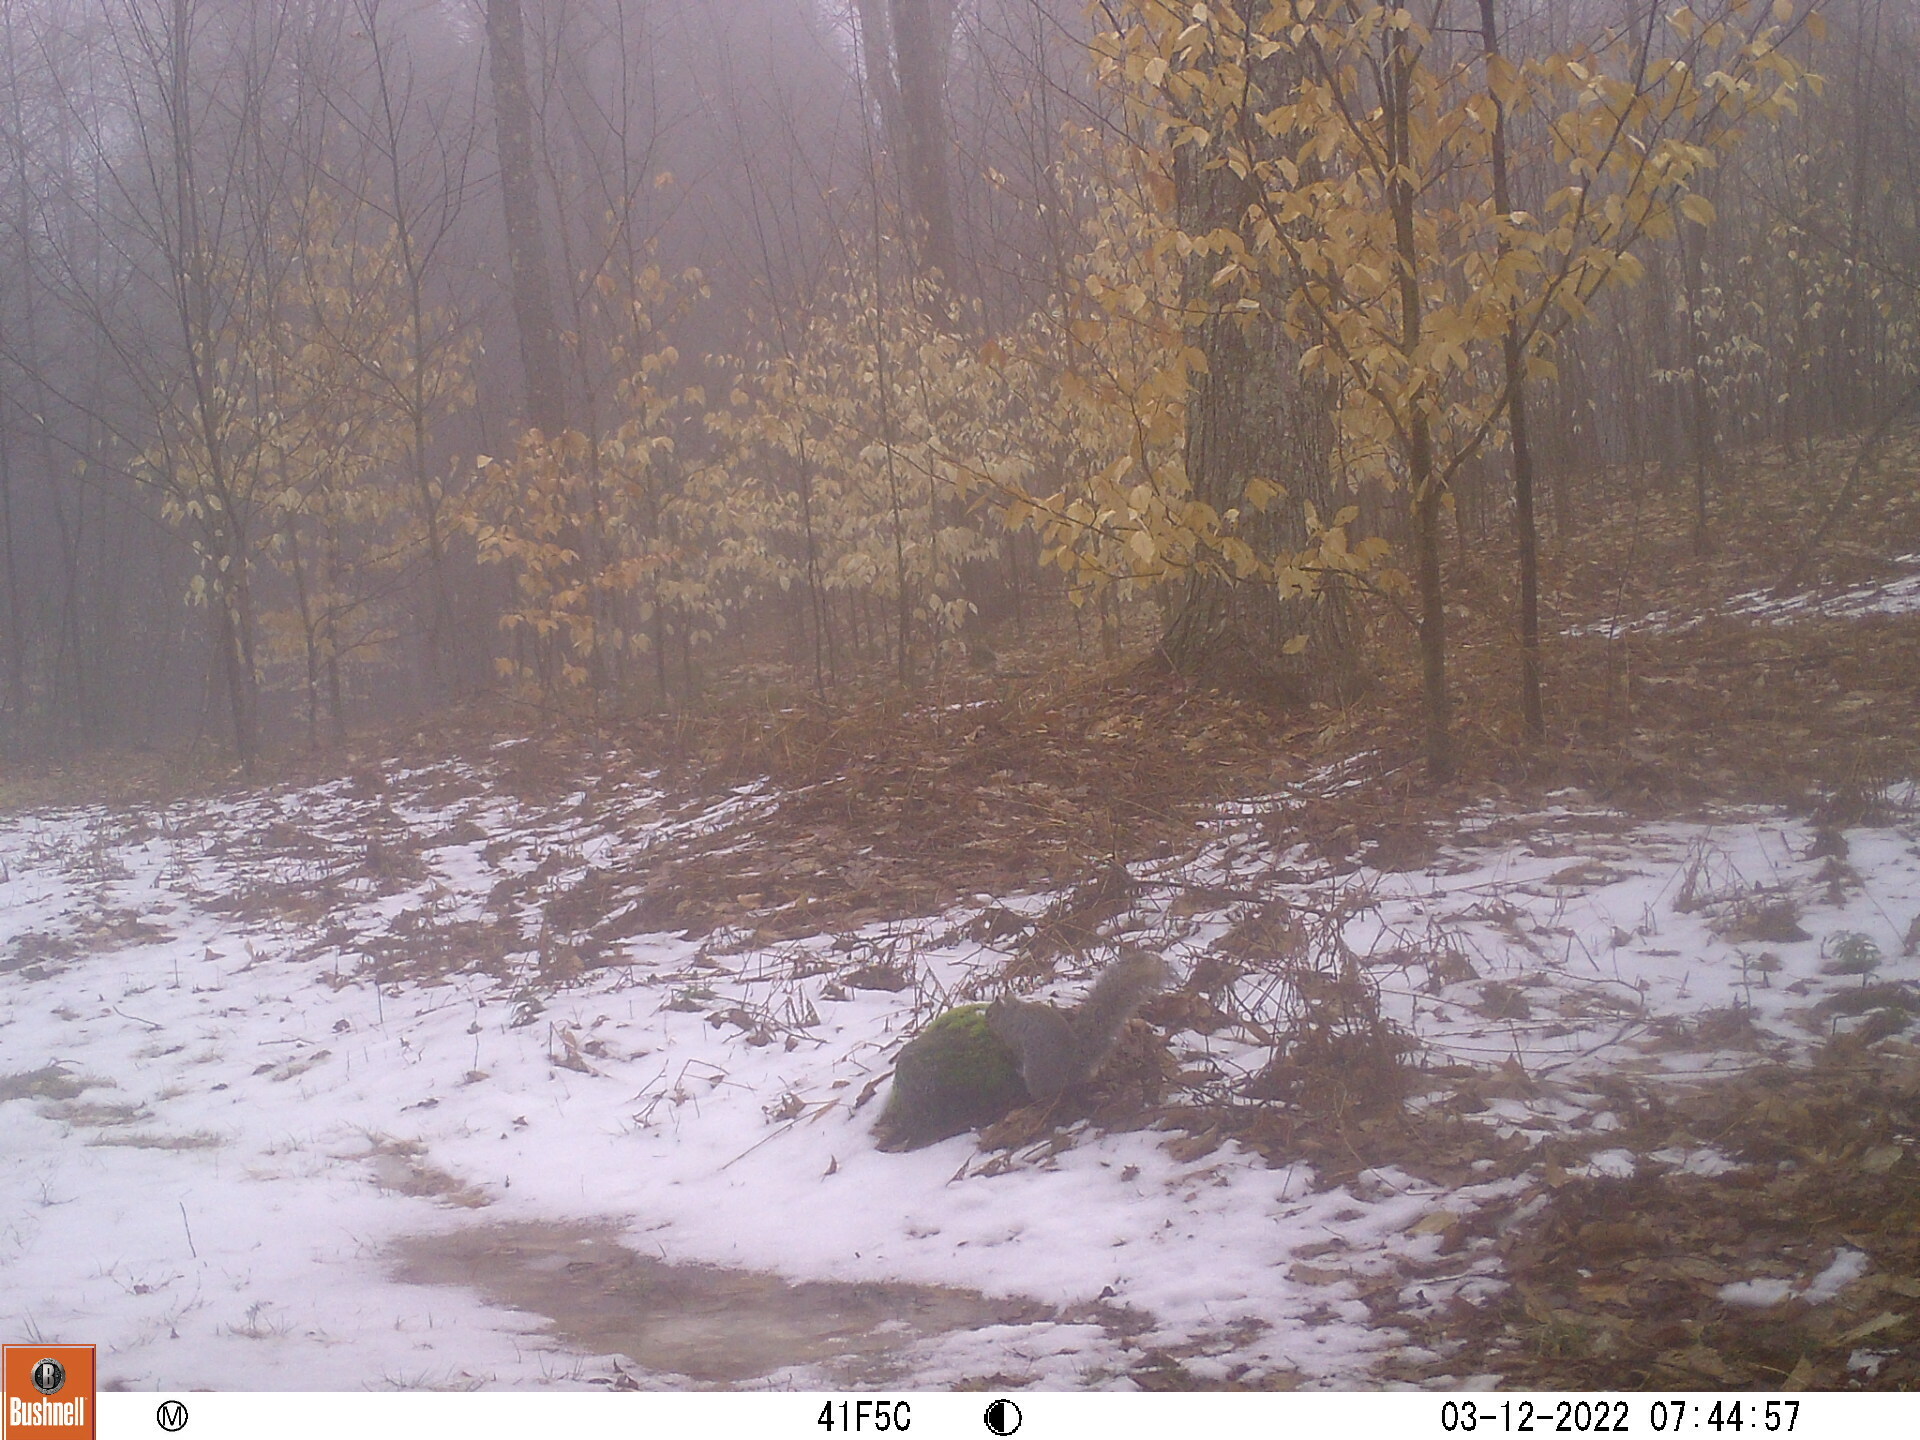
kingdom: Animalia
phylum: Chordata
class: Mammalia
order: Rodentia
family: Sciuridae
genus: Sciurus
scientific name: Sciurus carolinensis
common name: Eastern gray squirrel
